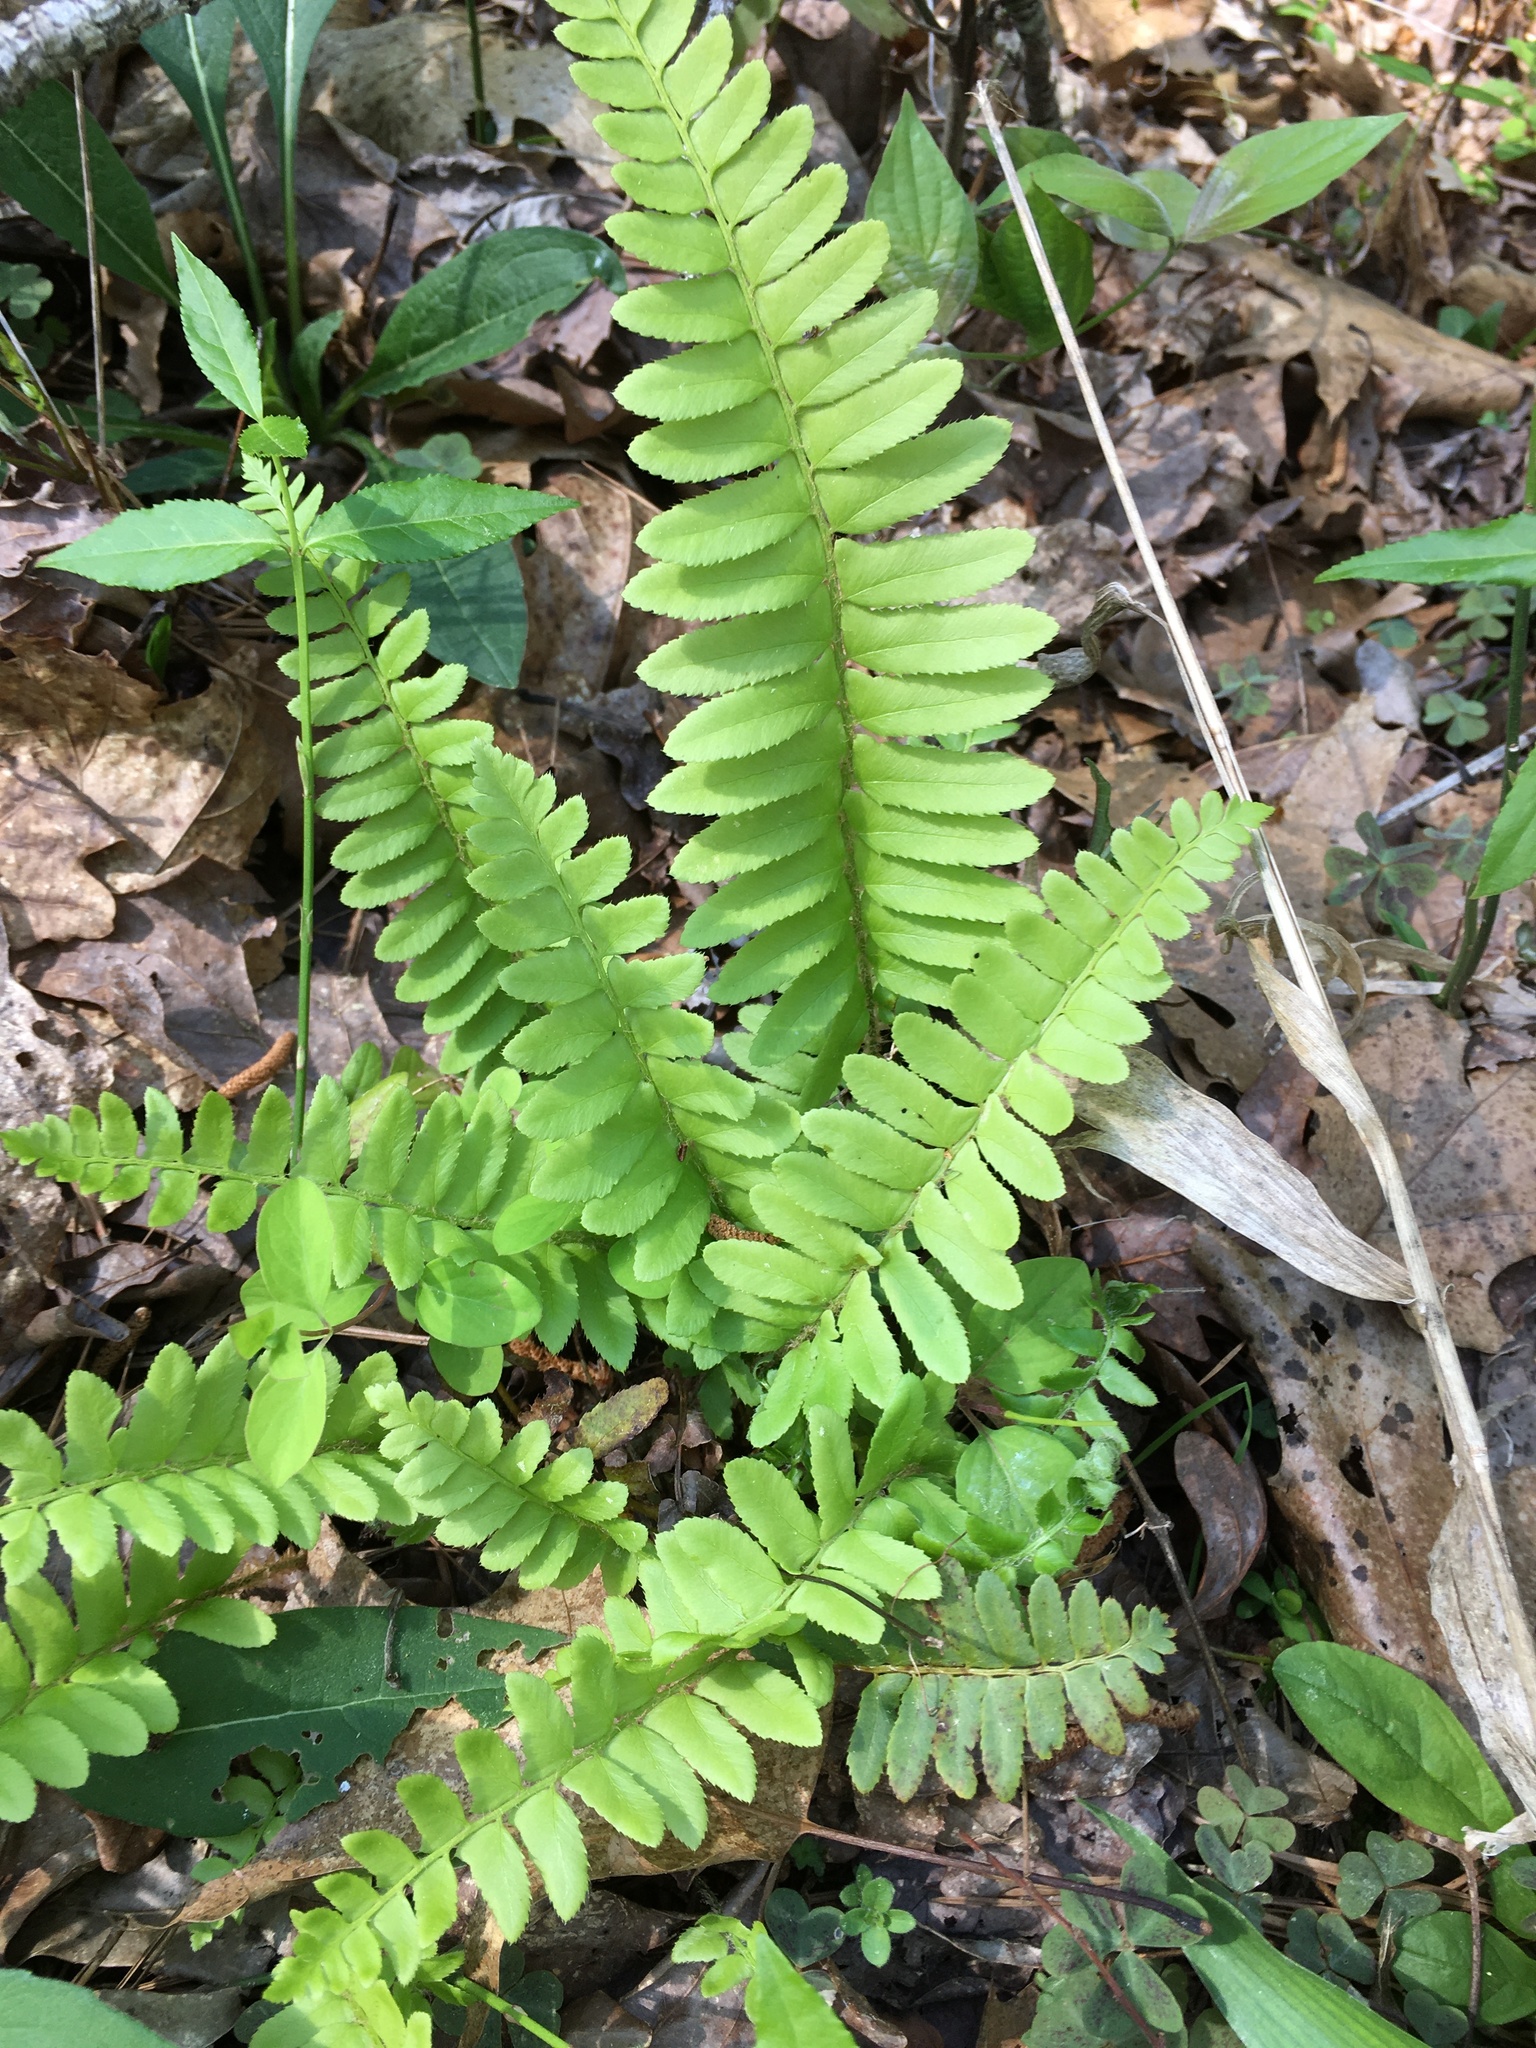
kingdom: Plantae
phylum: Tracheophyta
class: Polypodiopsida
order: Polypodiales
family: Dryopteridaceae
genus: Polystichum
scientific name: Polystichum acrostichoides
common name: Christmas fern
